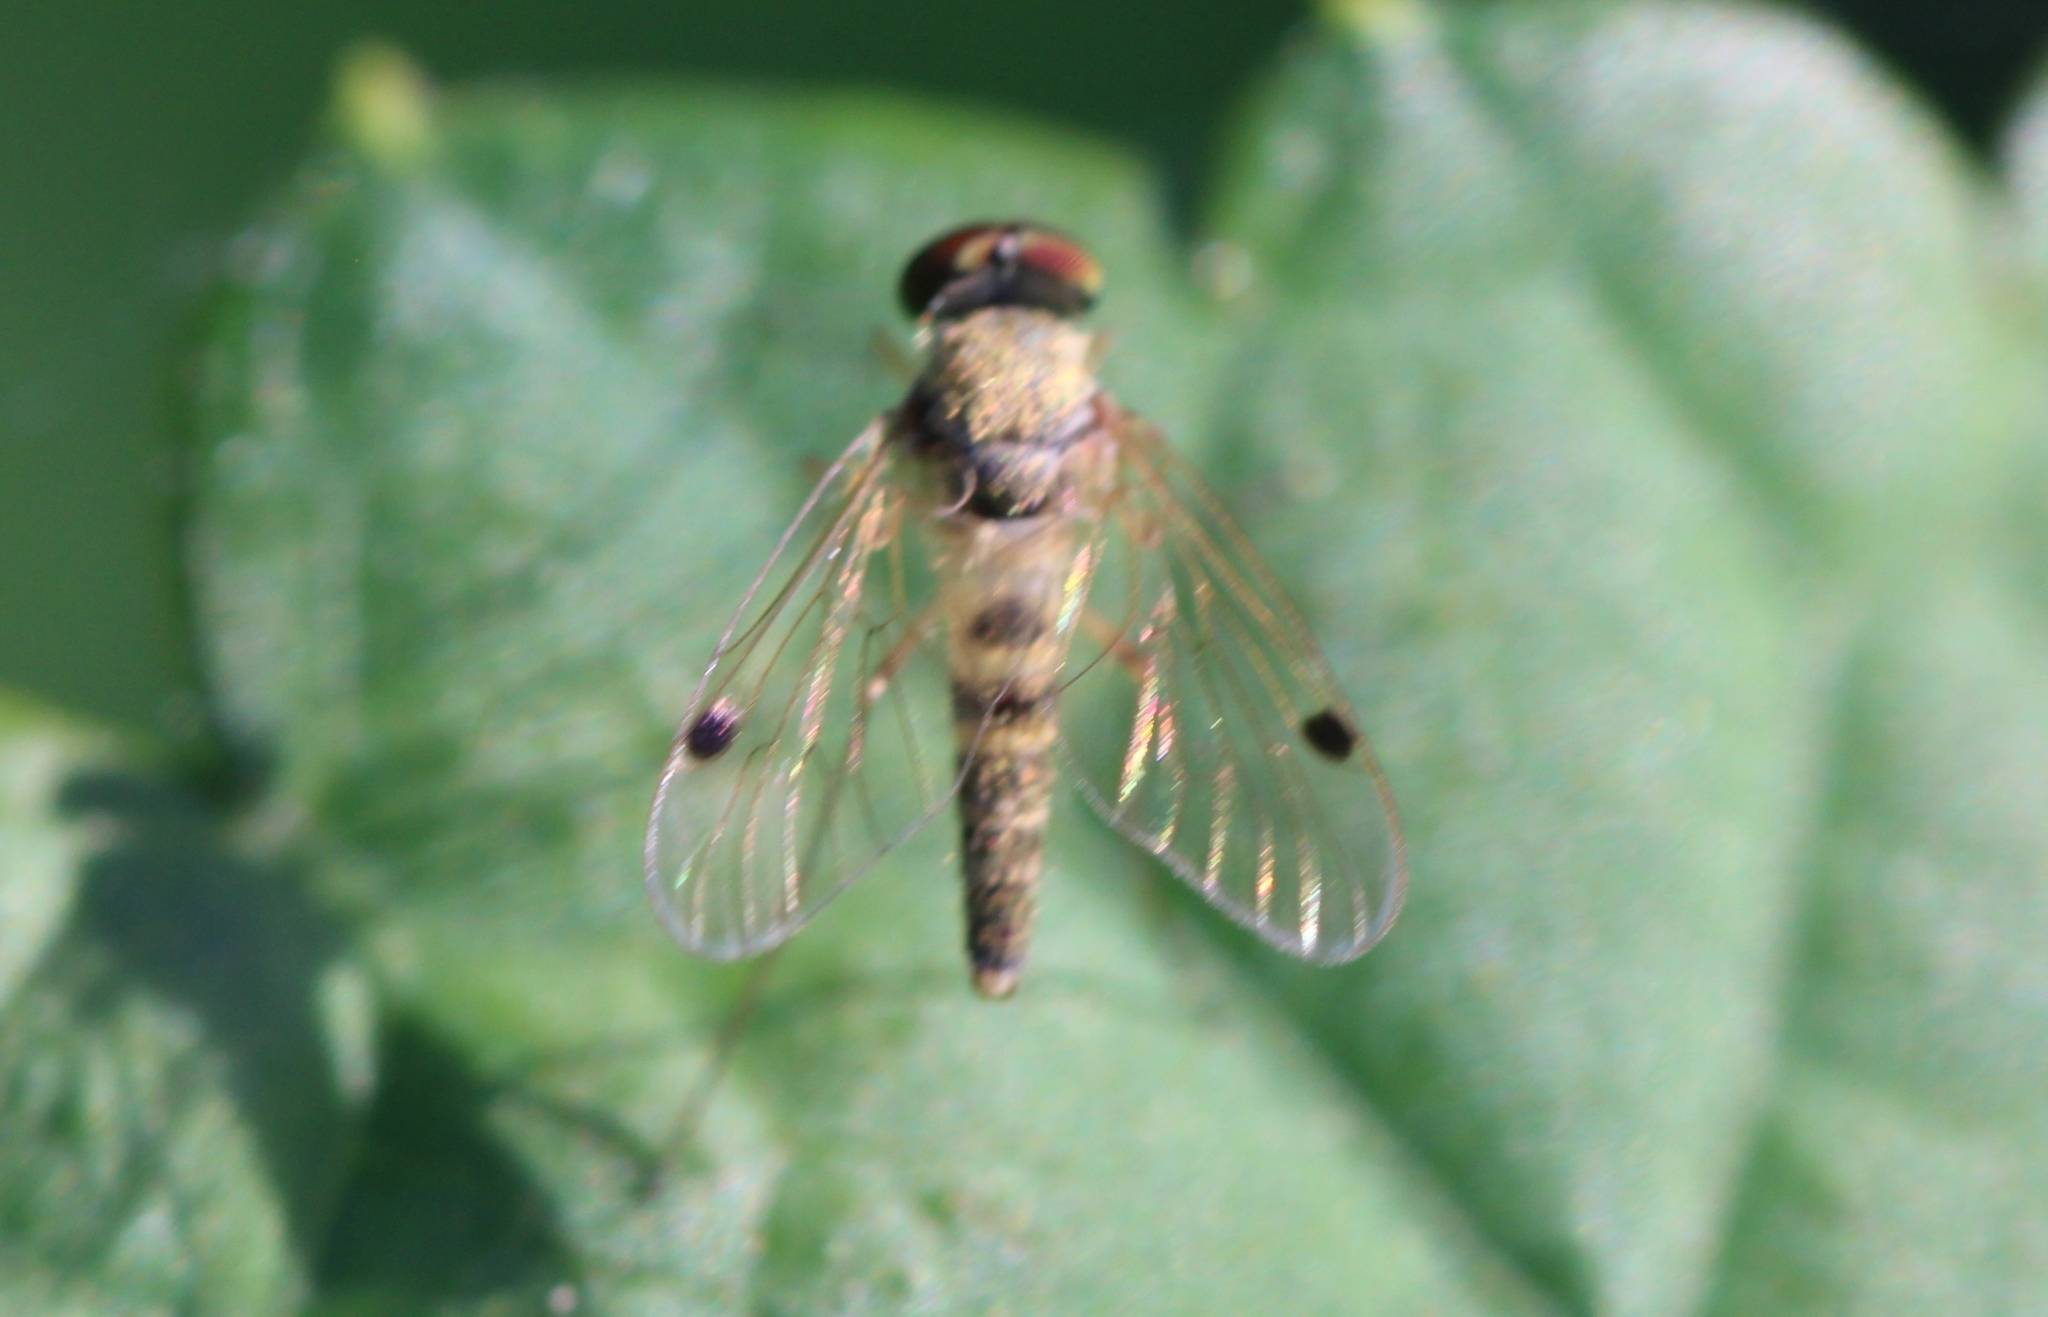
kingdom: Animalia
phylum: Arthropoda
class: Insecta
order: Diptera
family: Rhagionidae
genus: Chrysopilus
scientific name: Chrysopilus modestus
